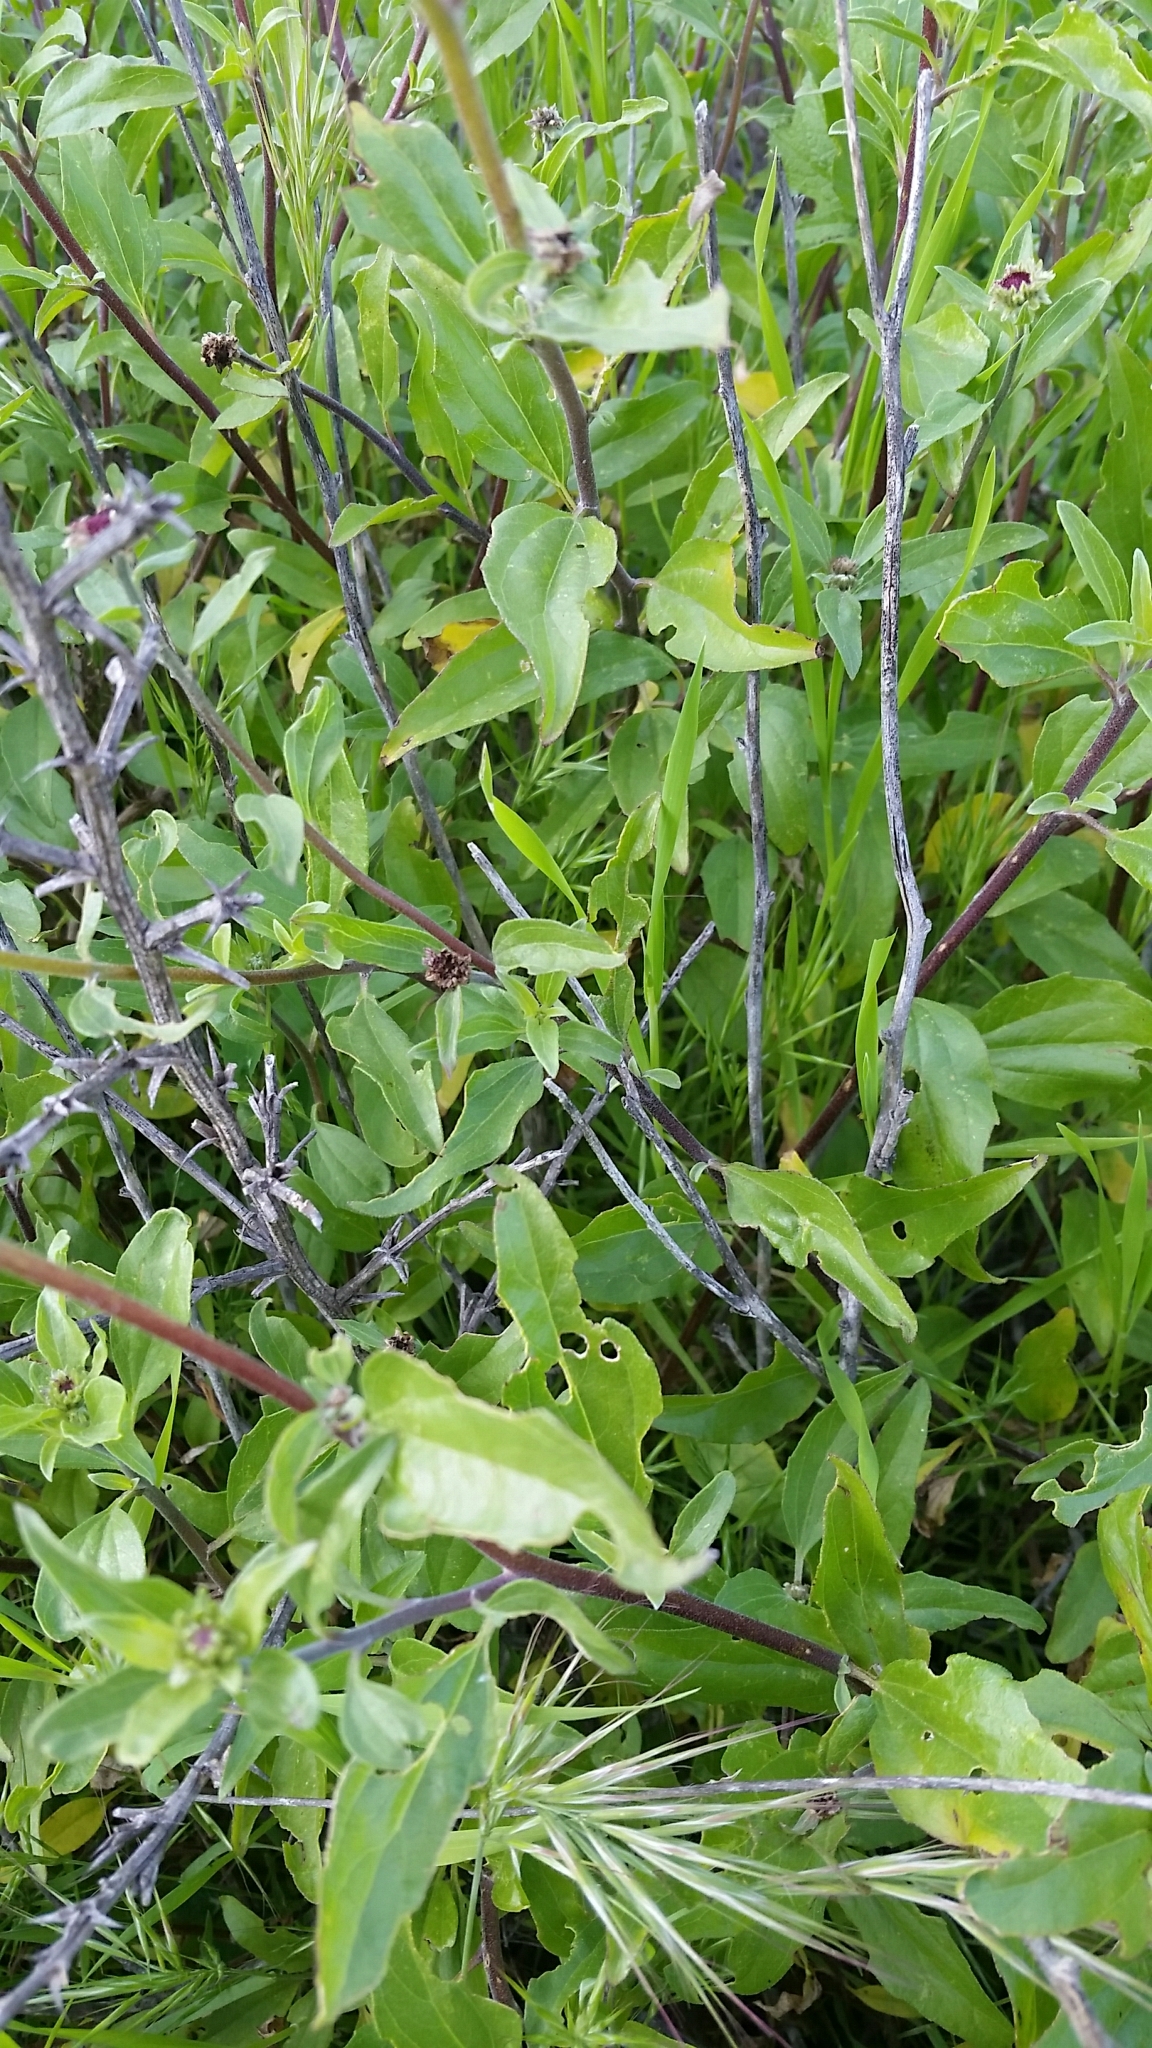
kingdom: Plantae
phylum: Tracheophyta
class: Magnoliopsida
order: Asterales
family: Asteraceae
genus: Encelia
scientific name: Encelia californica
